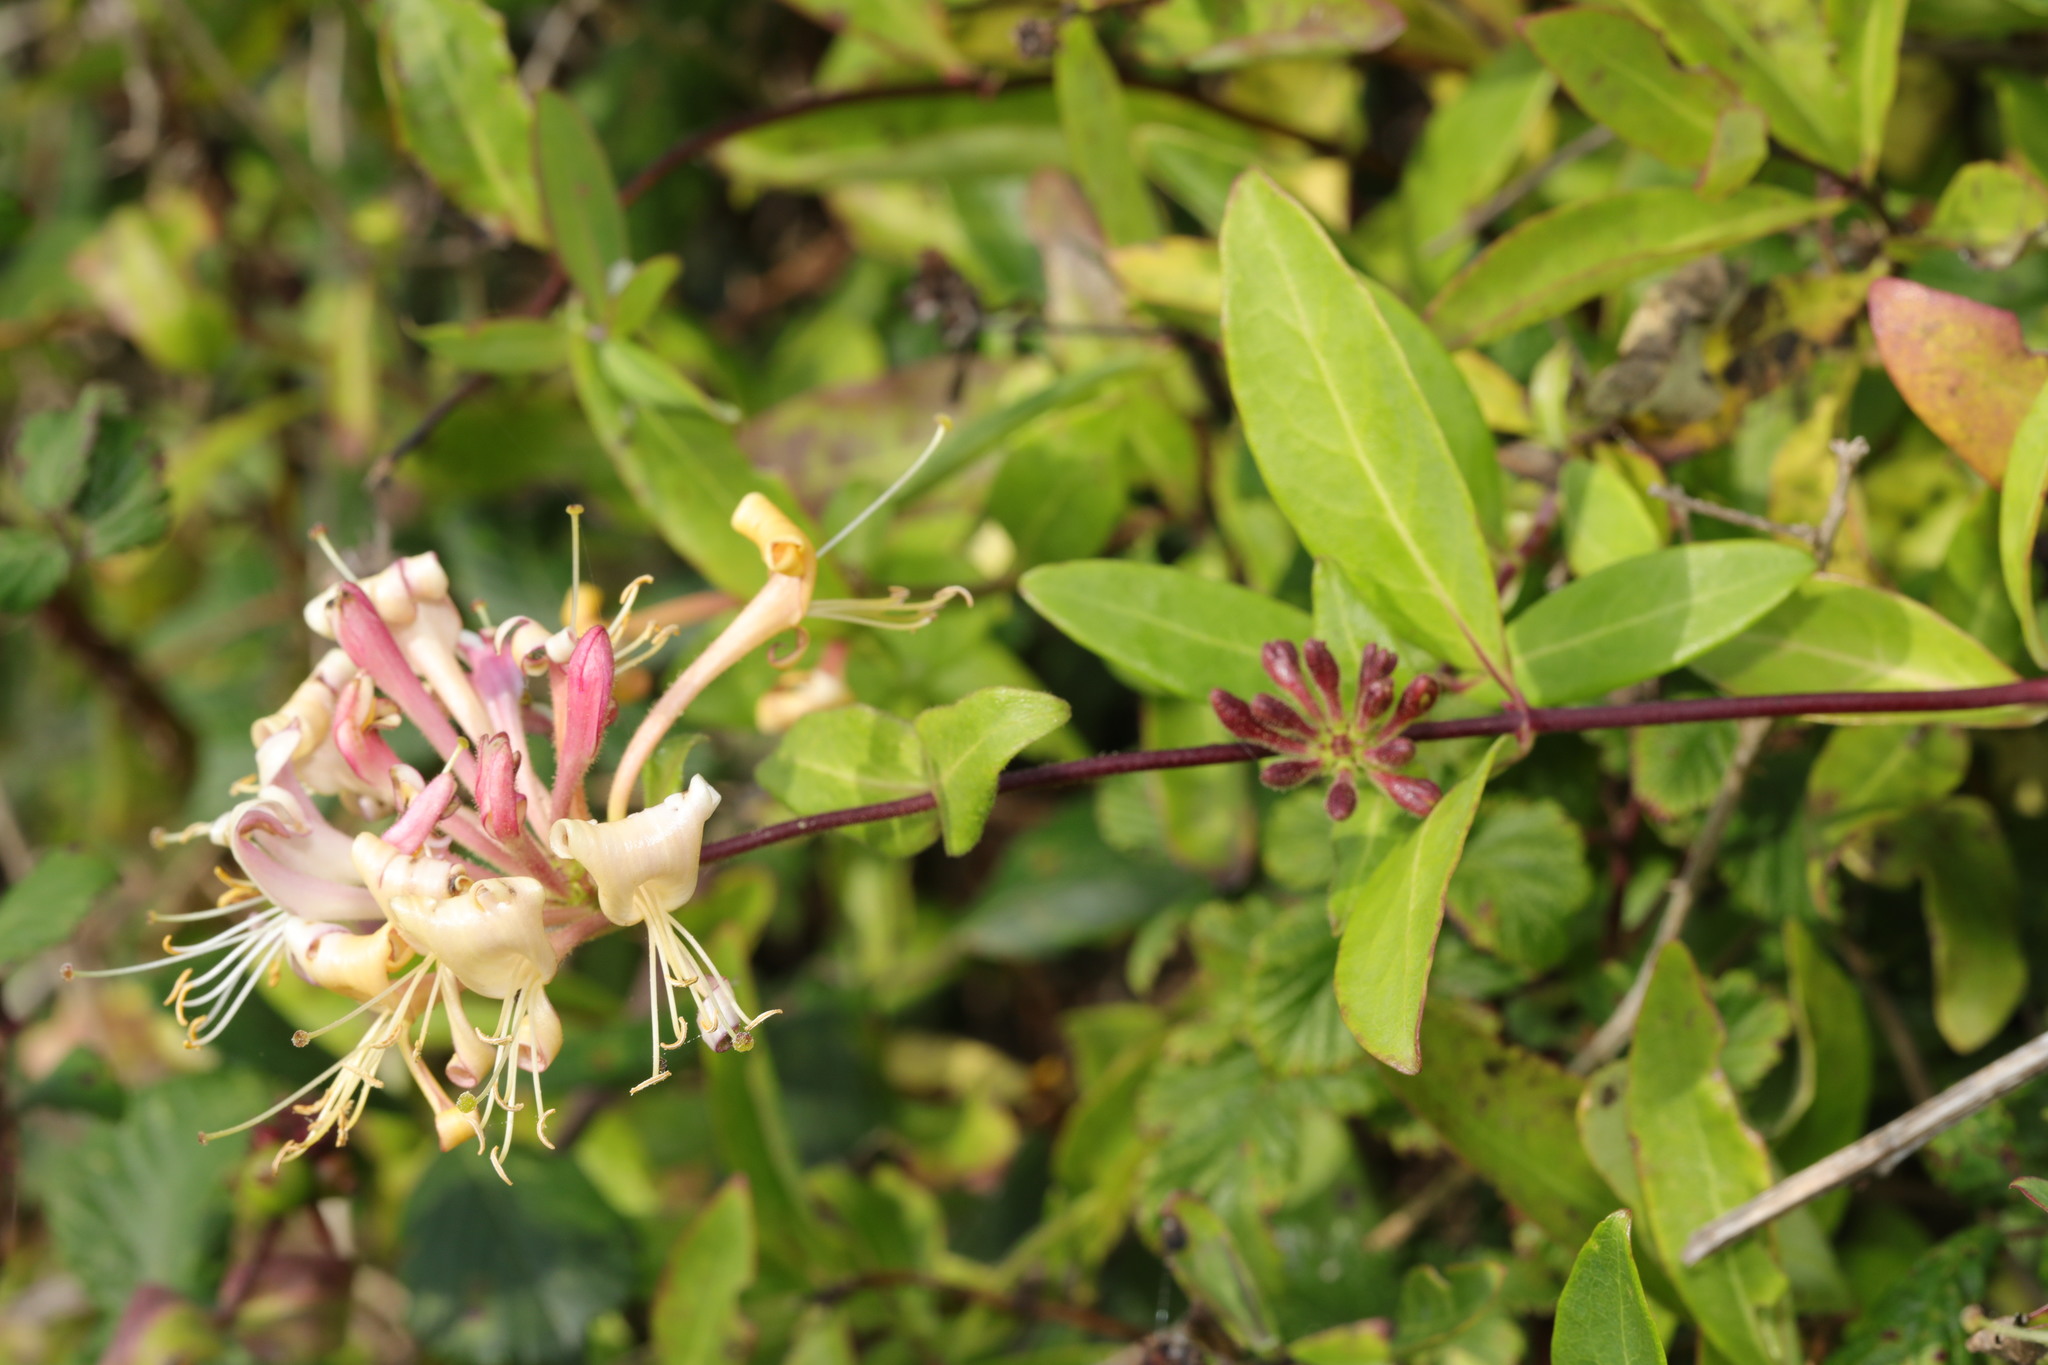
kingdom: Plantae
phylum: Tracheophyta
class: Magnoliopsida
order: Dipsacales
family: Caprifoliaceae
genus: Lonicera
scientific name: Lonicera periclymenum
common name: European honeysuckle
